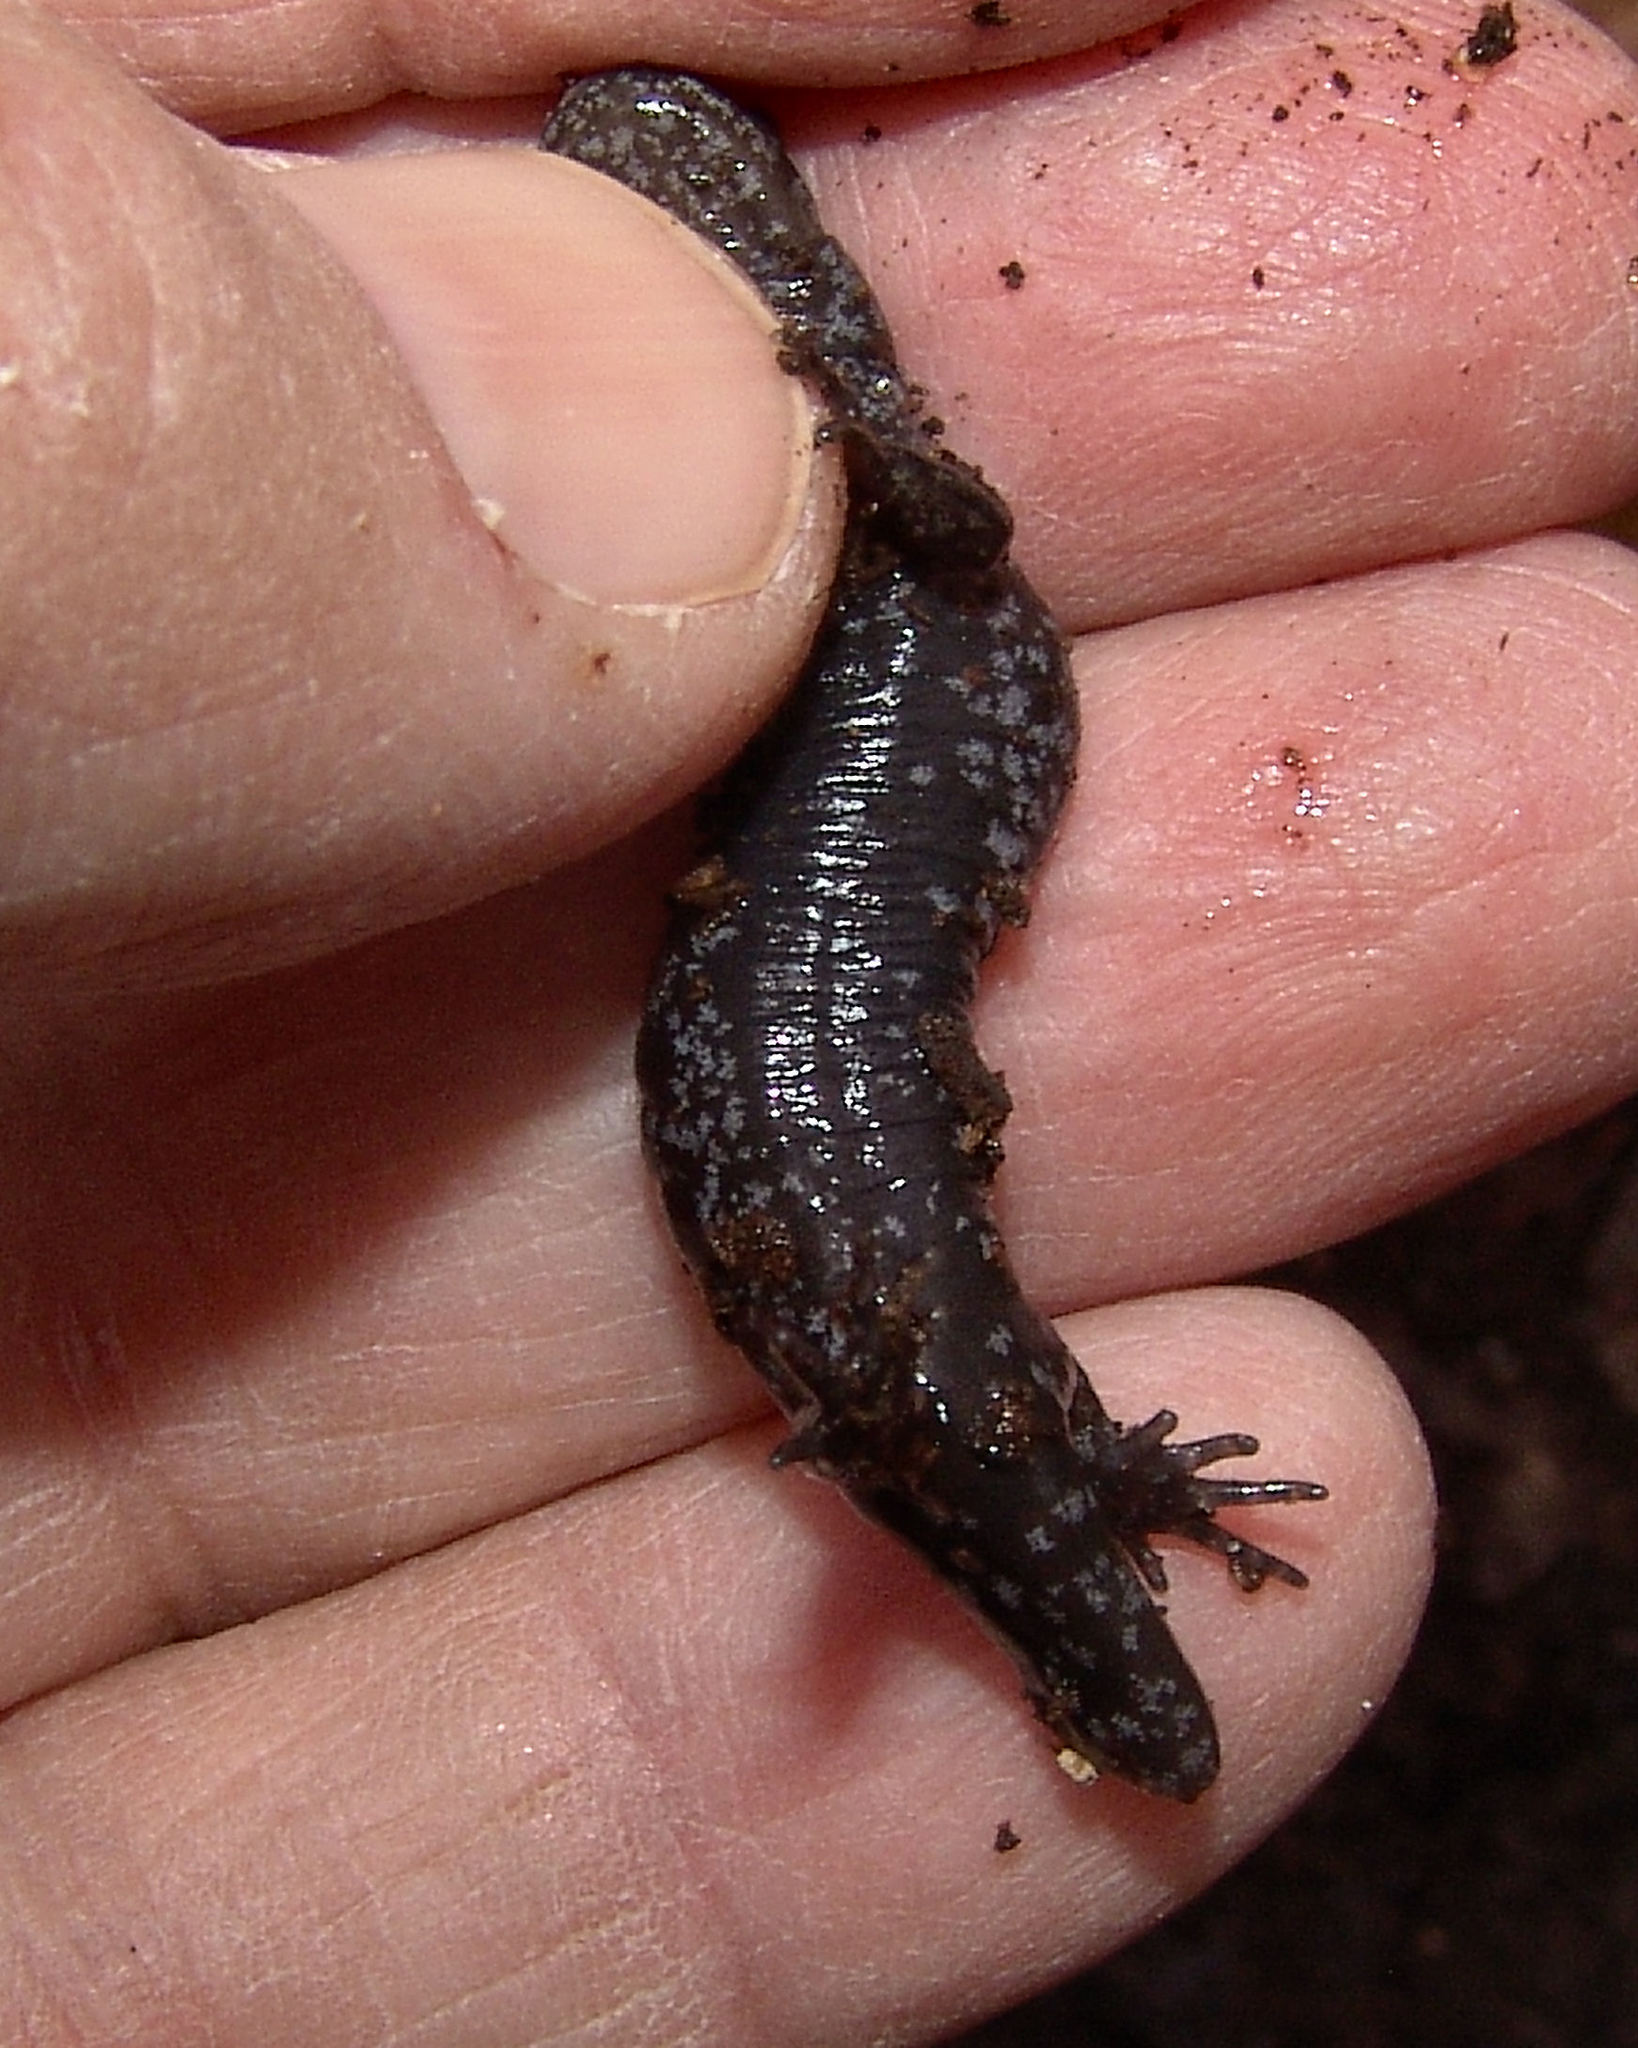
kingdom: Animalia
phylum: Chordata
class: Amphibia
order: Caudata
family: Ambystomatidae
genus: Ambystoma
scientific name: Ambystoma texanum
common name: Small-mouth salamander
